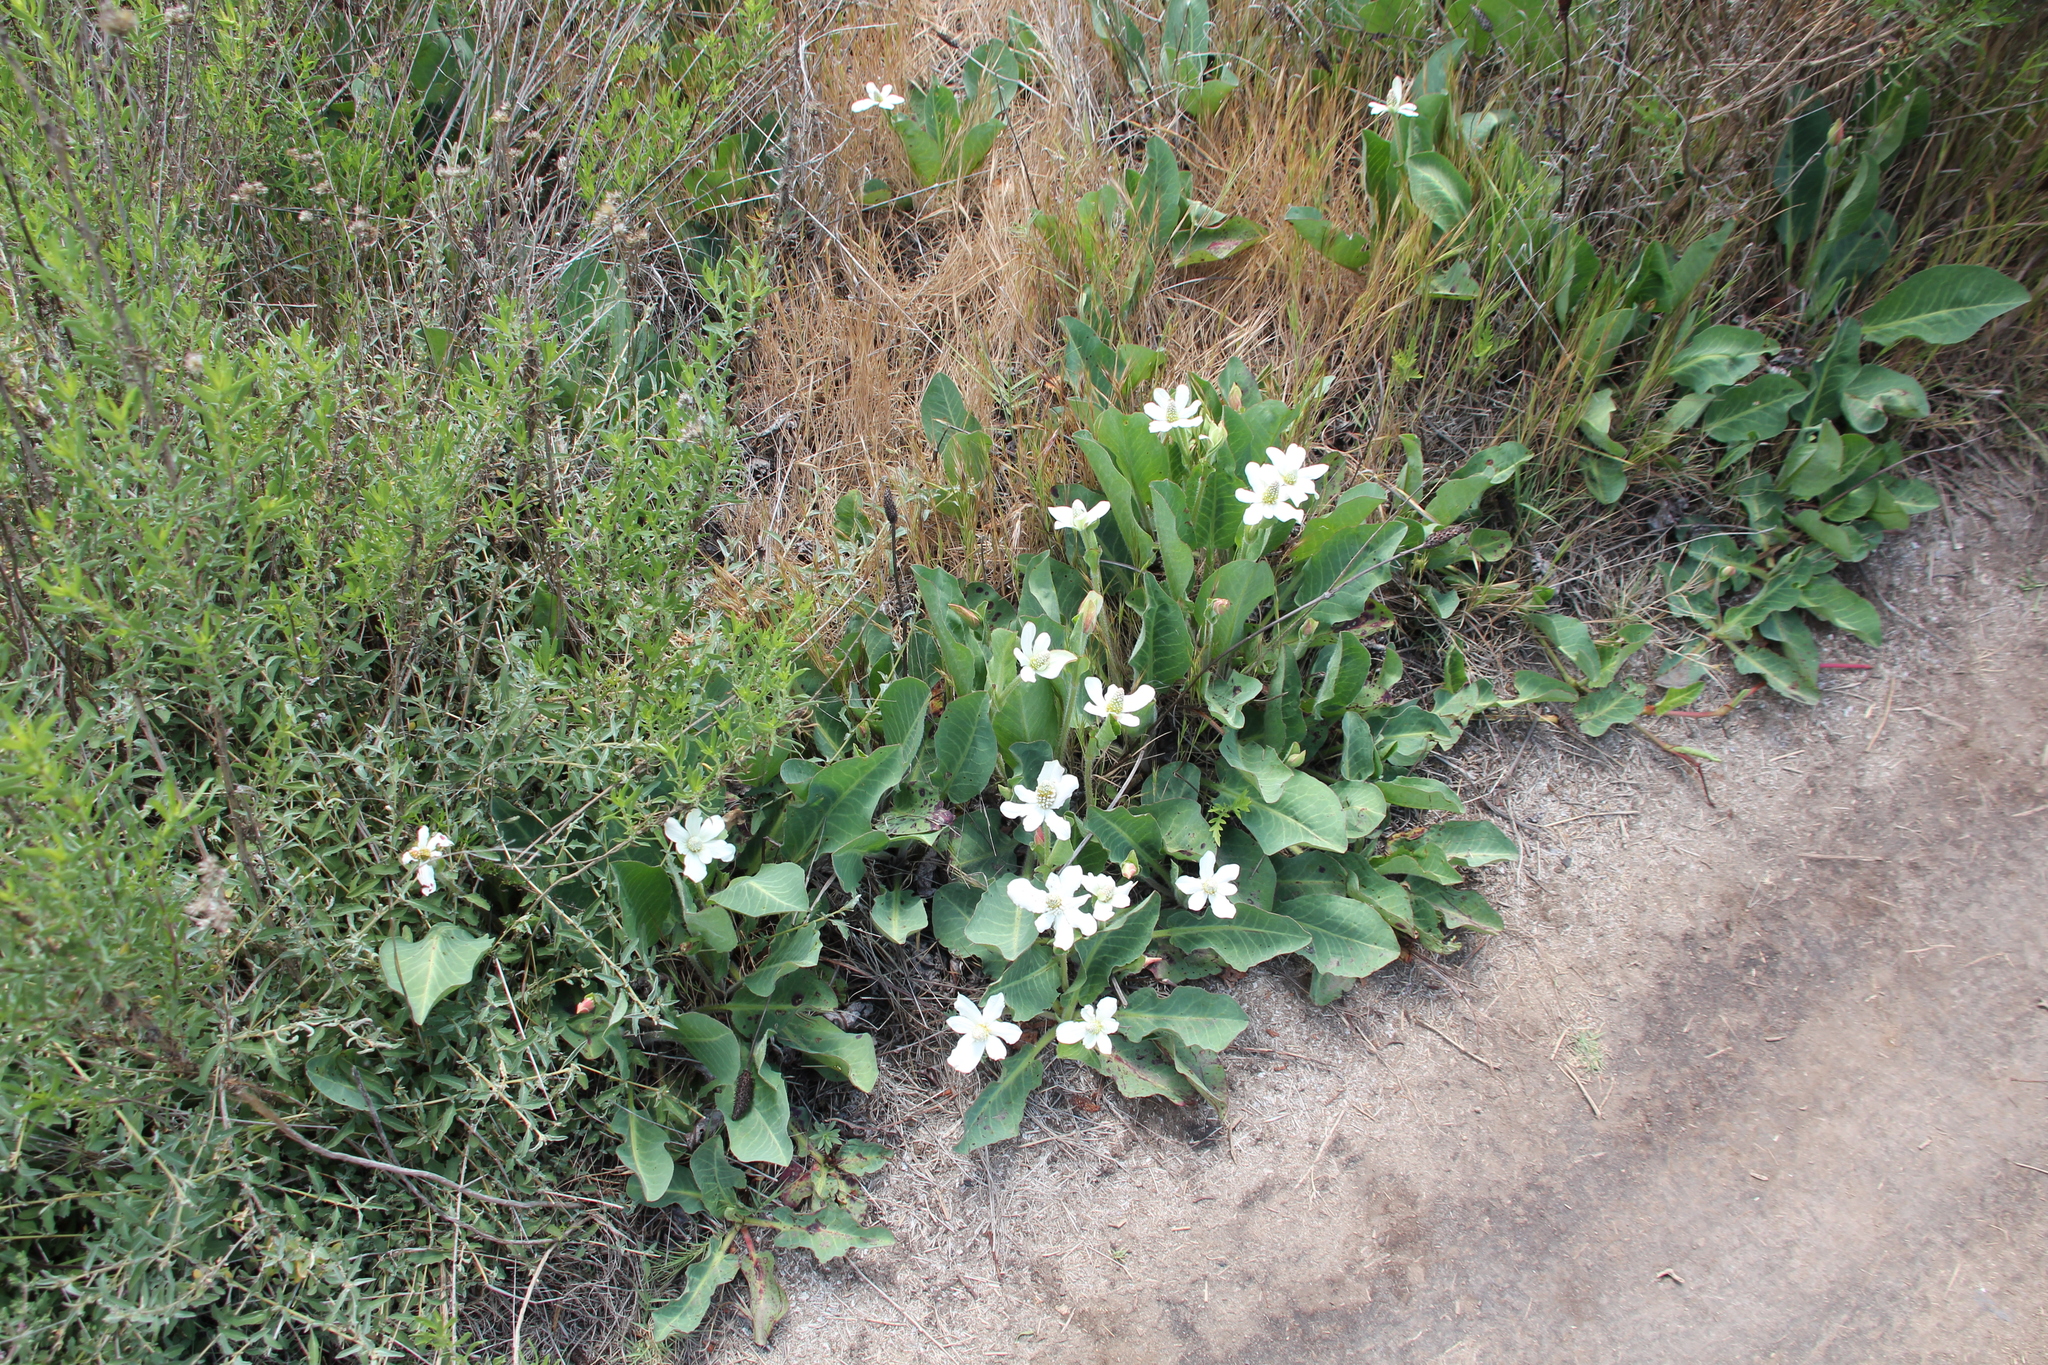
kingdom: Plantae
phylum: Tracheophyta
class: Magnoliopsida
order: Piperales
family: Saururaceae
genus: Anemopsis
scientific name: Anemopsis californica
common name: Apache-beads
